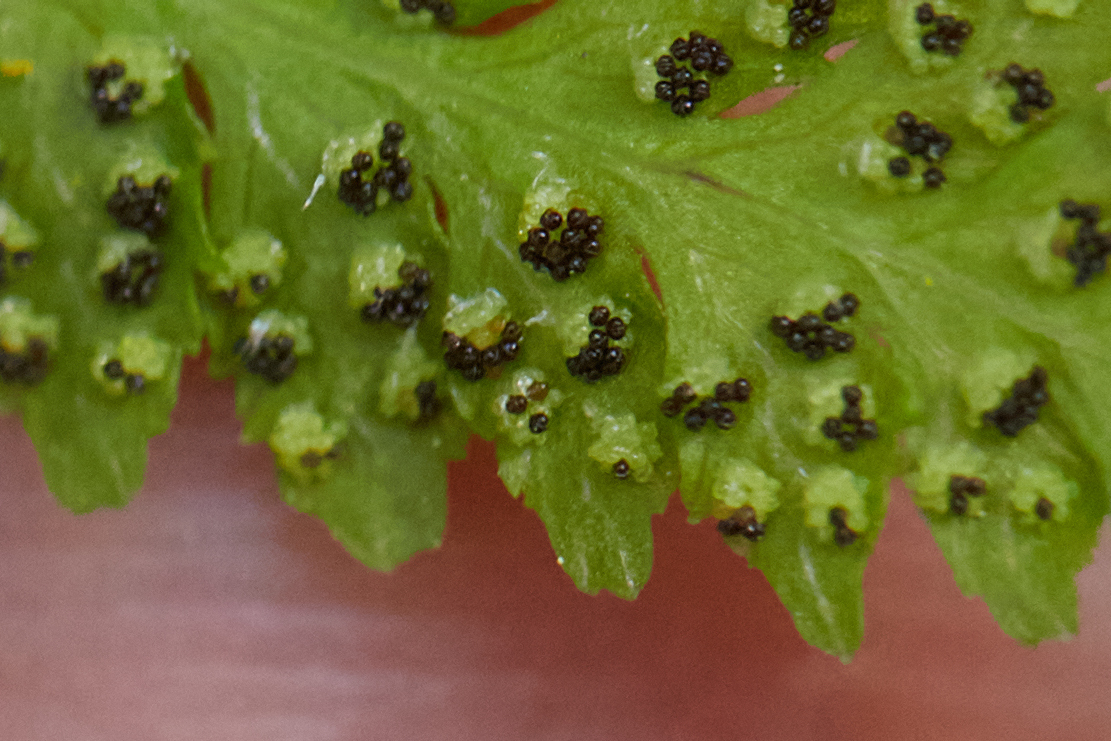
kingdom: Plantae
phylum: Tracheophyta
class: Polypodiopsida
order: Polypodiales
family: Cystopteridaceae
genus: Cystopteris
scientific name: Cystopteris fragilis
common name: Brittle bladder fern
